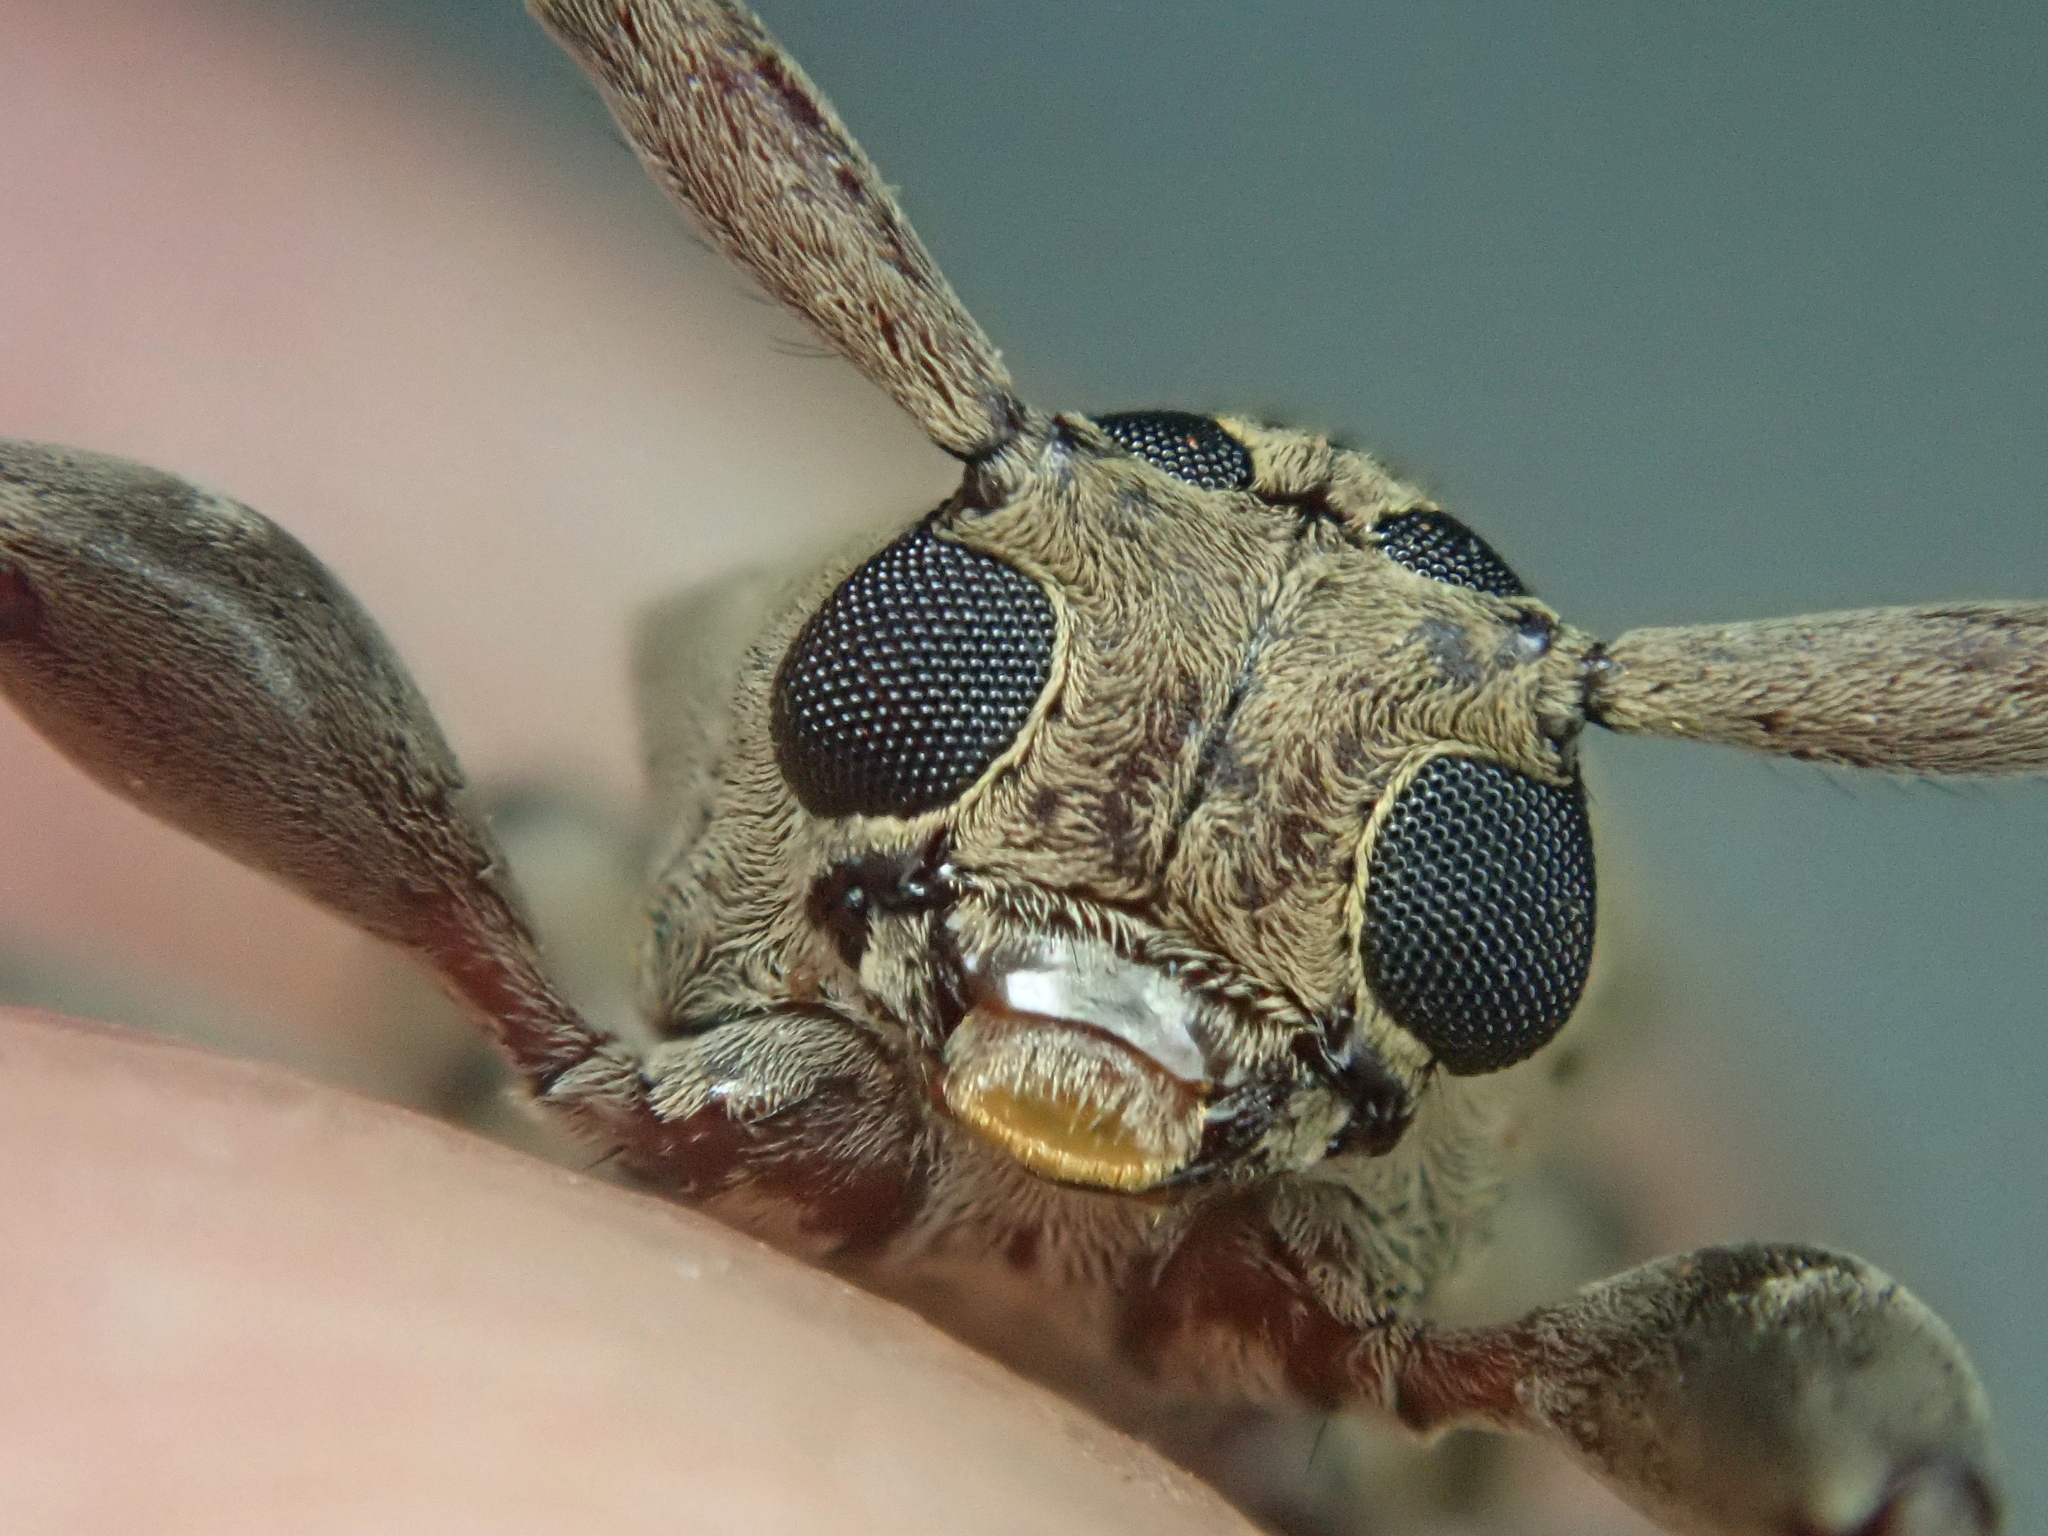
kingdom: Animalia
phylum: Arthropoda
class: Insecta
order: Coleoptera
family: Cerambycidae
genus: Oreodera
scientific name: Oreodera aerumnosa
